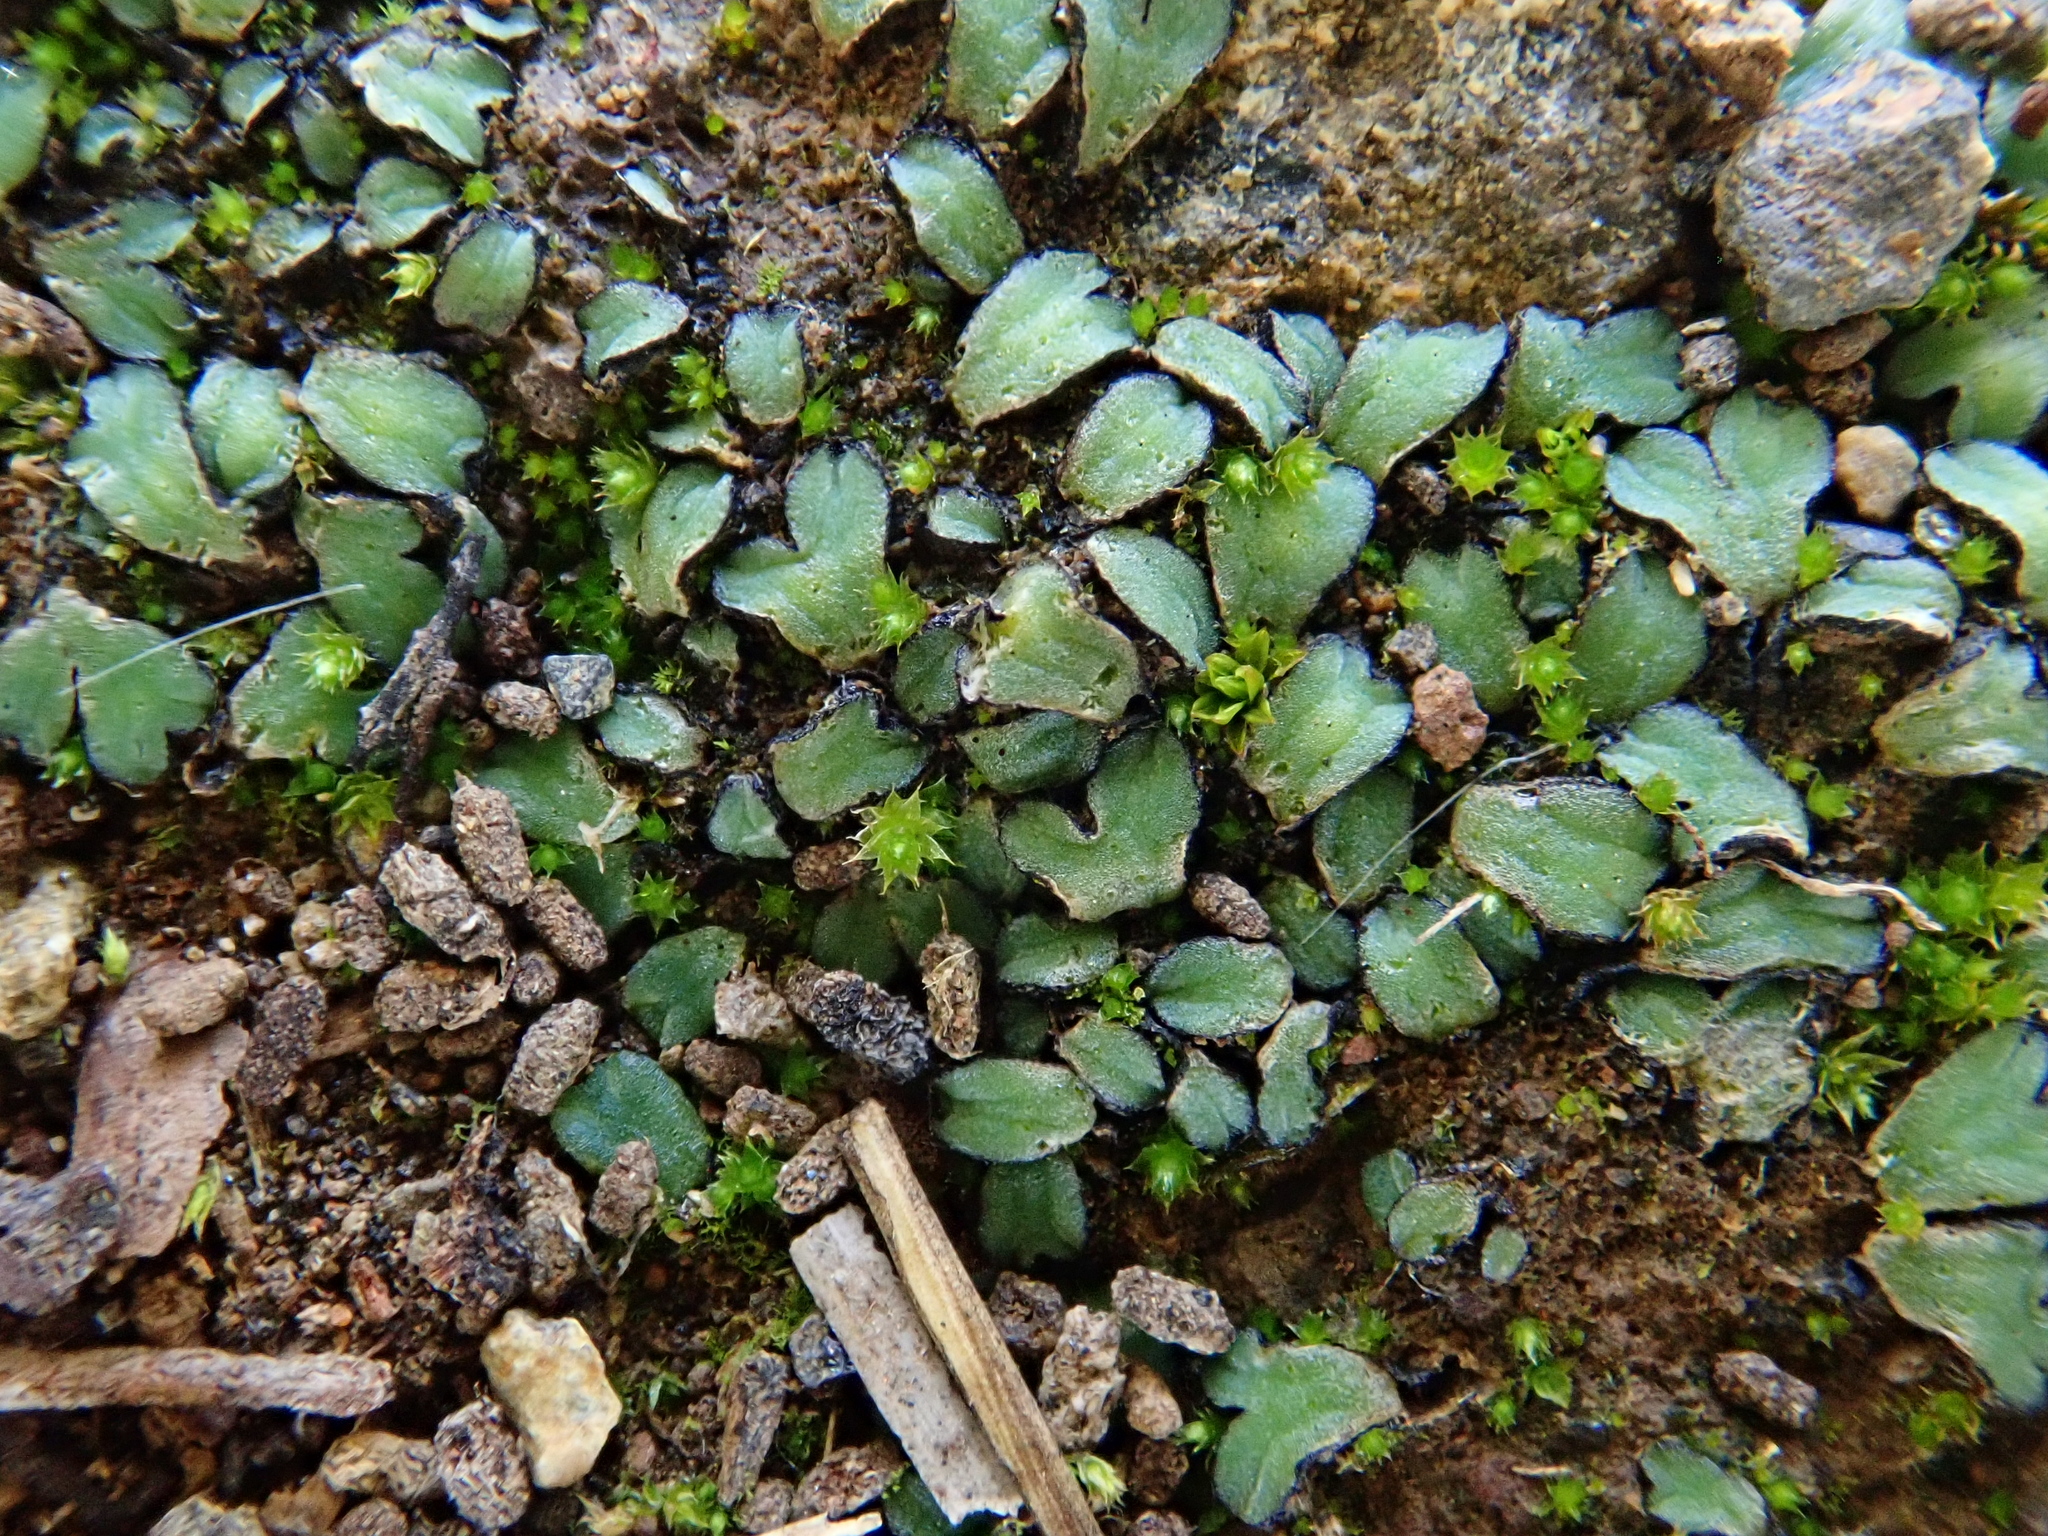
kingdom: Plantae
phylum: Marchantiophyta
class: Marchantiopsida
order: Marchantiales
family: Ricciaceae
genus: Riccia
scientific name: Riccia trabutiana
